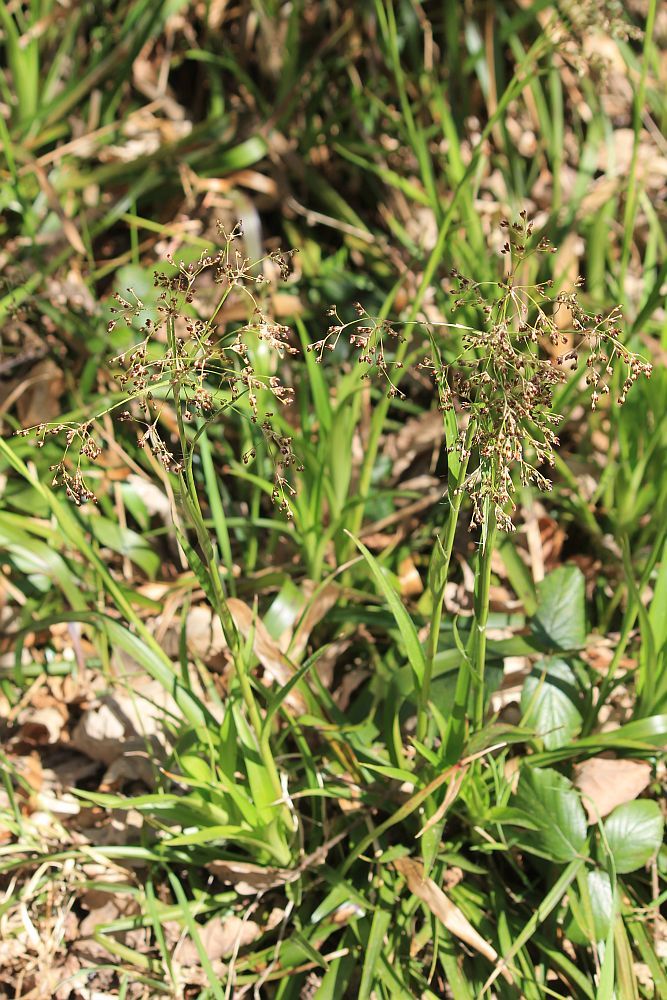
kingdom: Plantae
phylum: Tracheophyta
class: Liliopsida
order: Poales
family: Juncaceae
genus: Luzula
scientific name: Luzula sylvatica
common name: Great wood-rush
